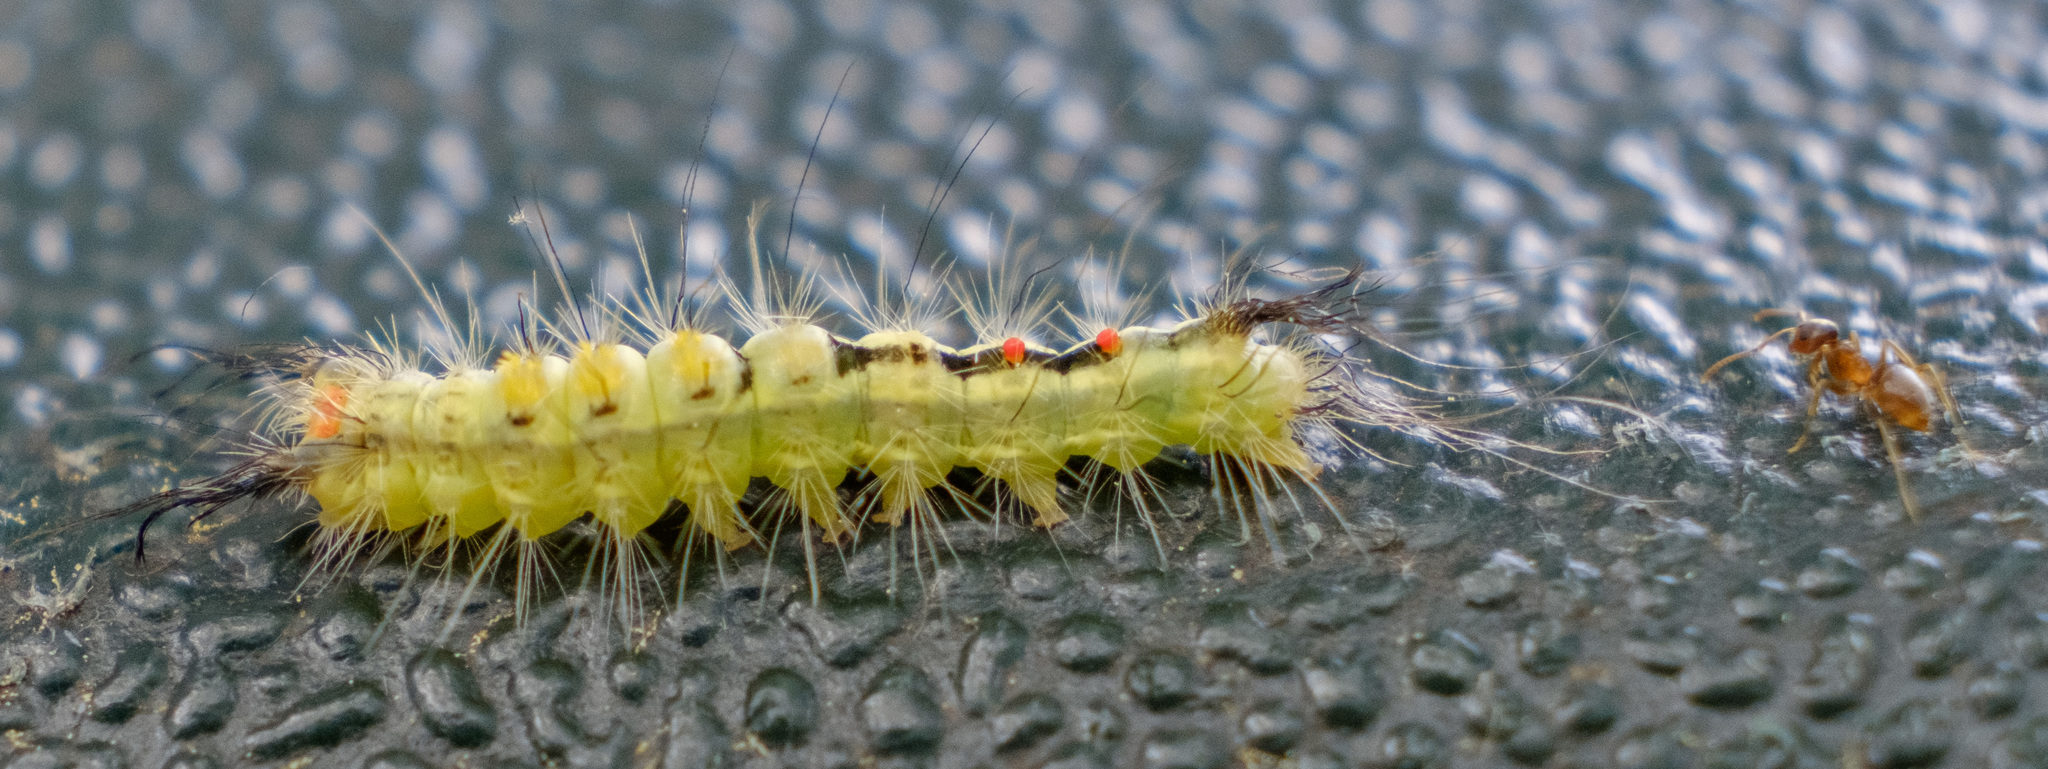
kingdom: Animalia
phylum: Arthropoda
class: Insecta
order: Lepidoptera
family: Erebidae
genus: Orgyia
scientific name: Orgyia leucostigma
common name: White-marked tussock moth
